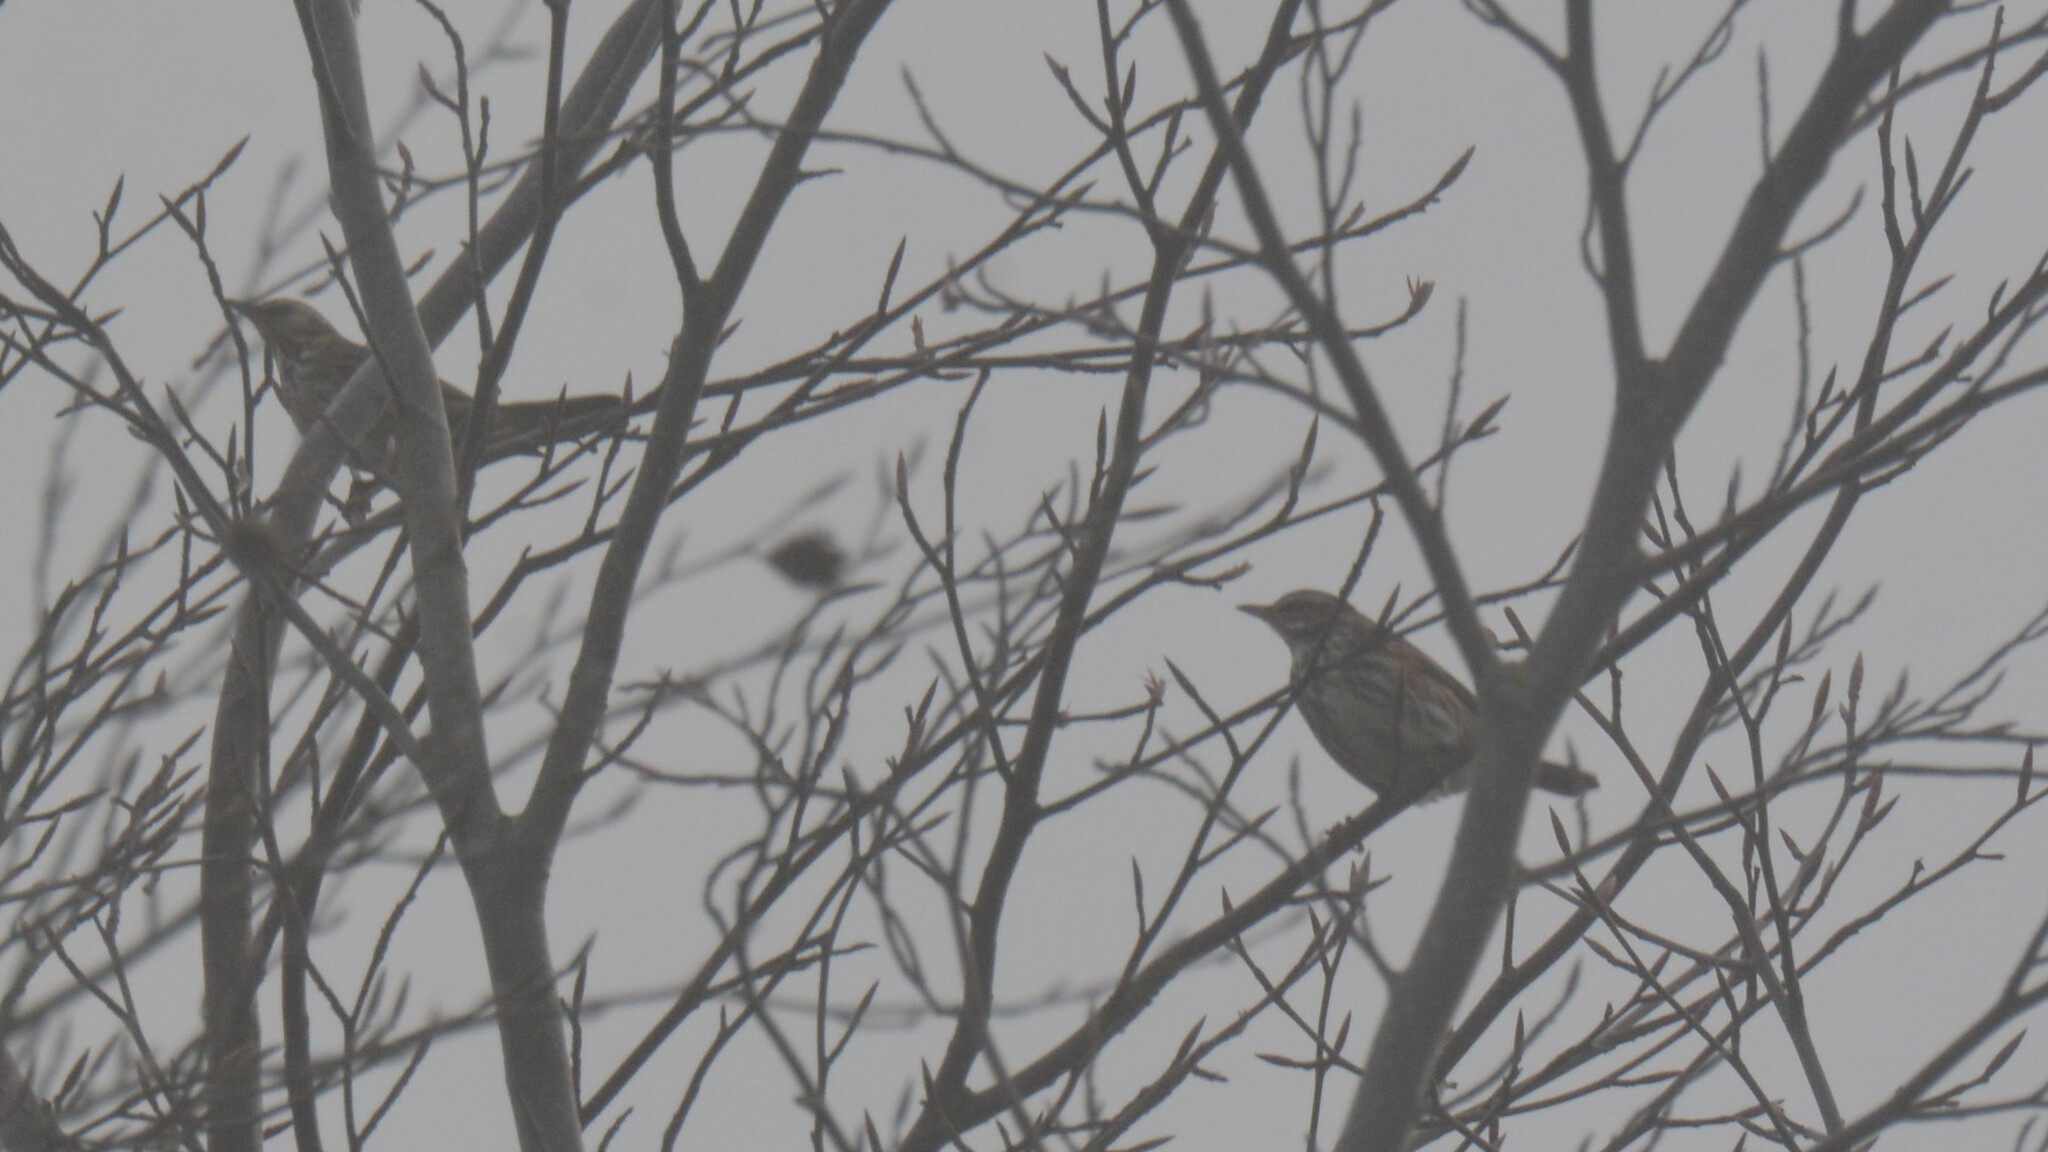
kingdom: Animalia
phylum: Chordata
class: Aves
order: Passeriformes
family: Turdidae
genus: Turdus
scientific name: Turdus iliacus
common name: Redwing
